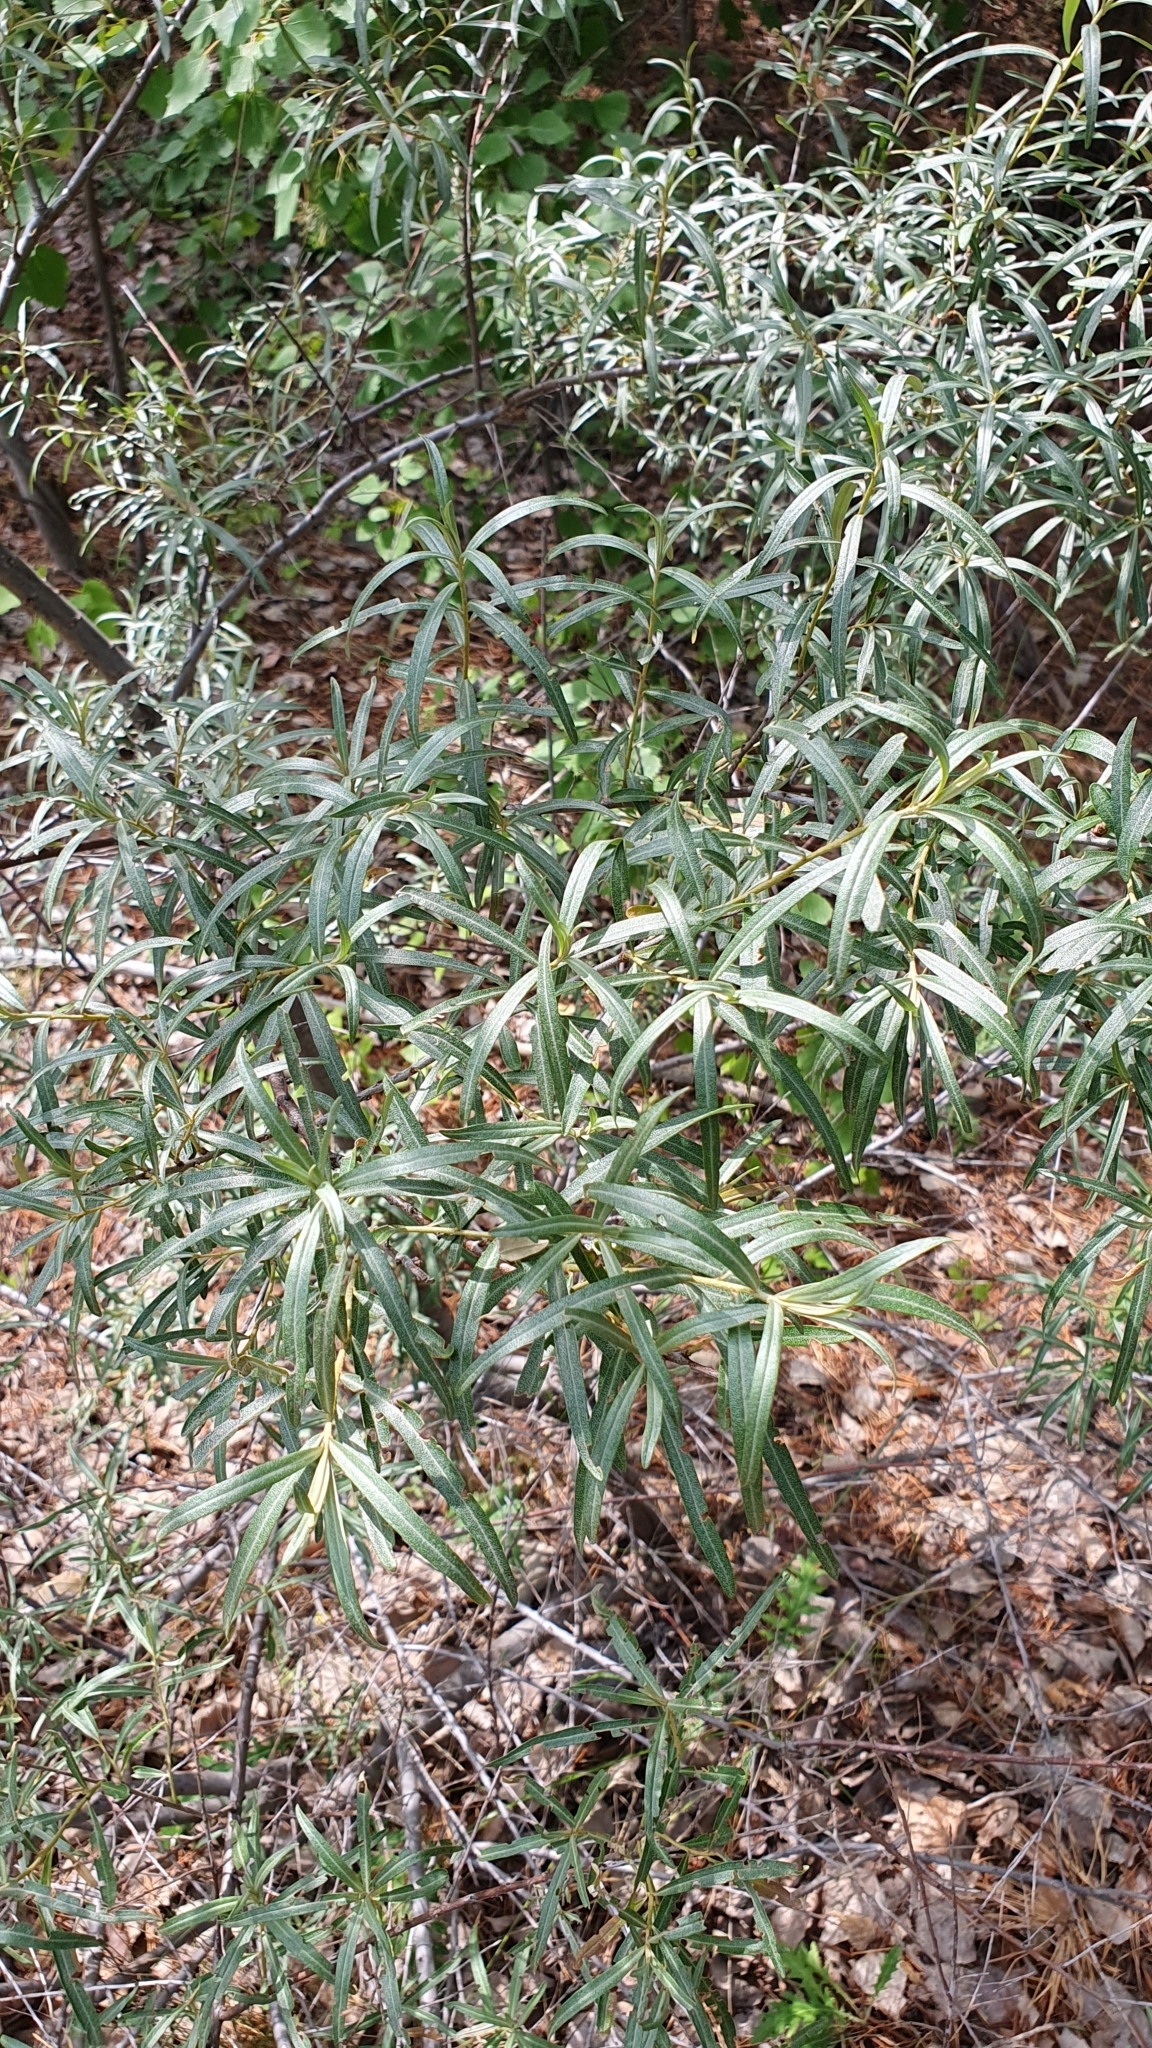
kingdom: Plantae
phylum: Tracheophyta
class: Magnoliopsida
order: Rosales
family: Elaeagnaceae
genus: Hippophae
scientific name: Hippophae rhamnoides
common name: Sea-buckthorn
